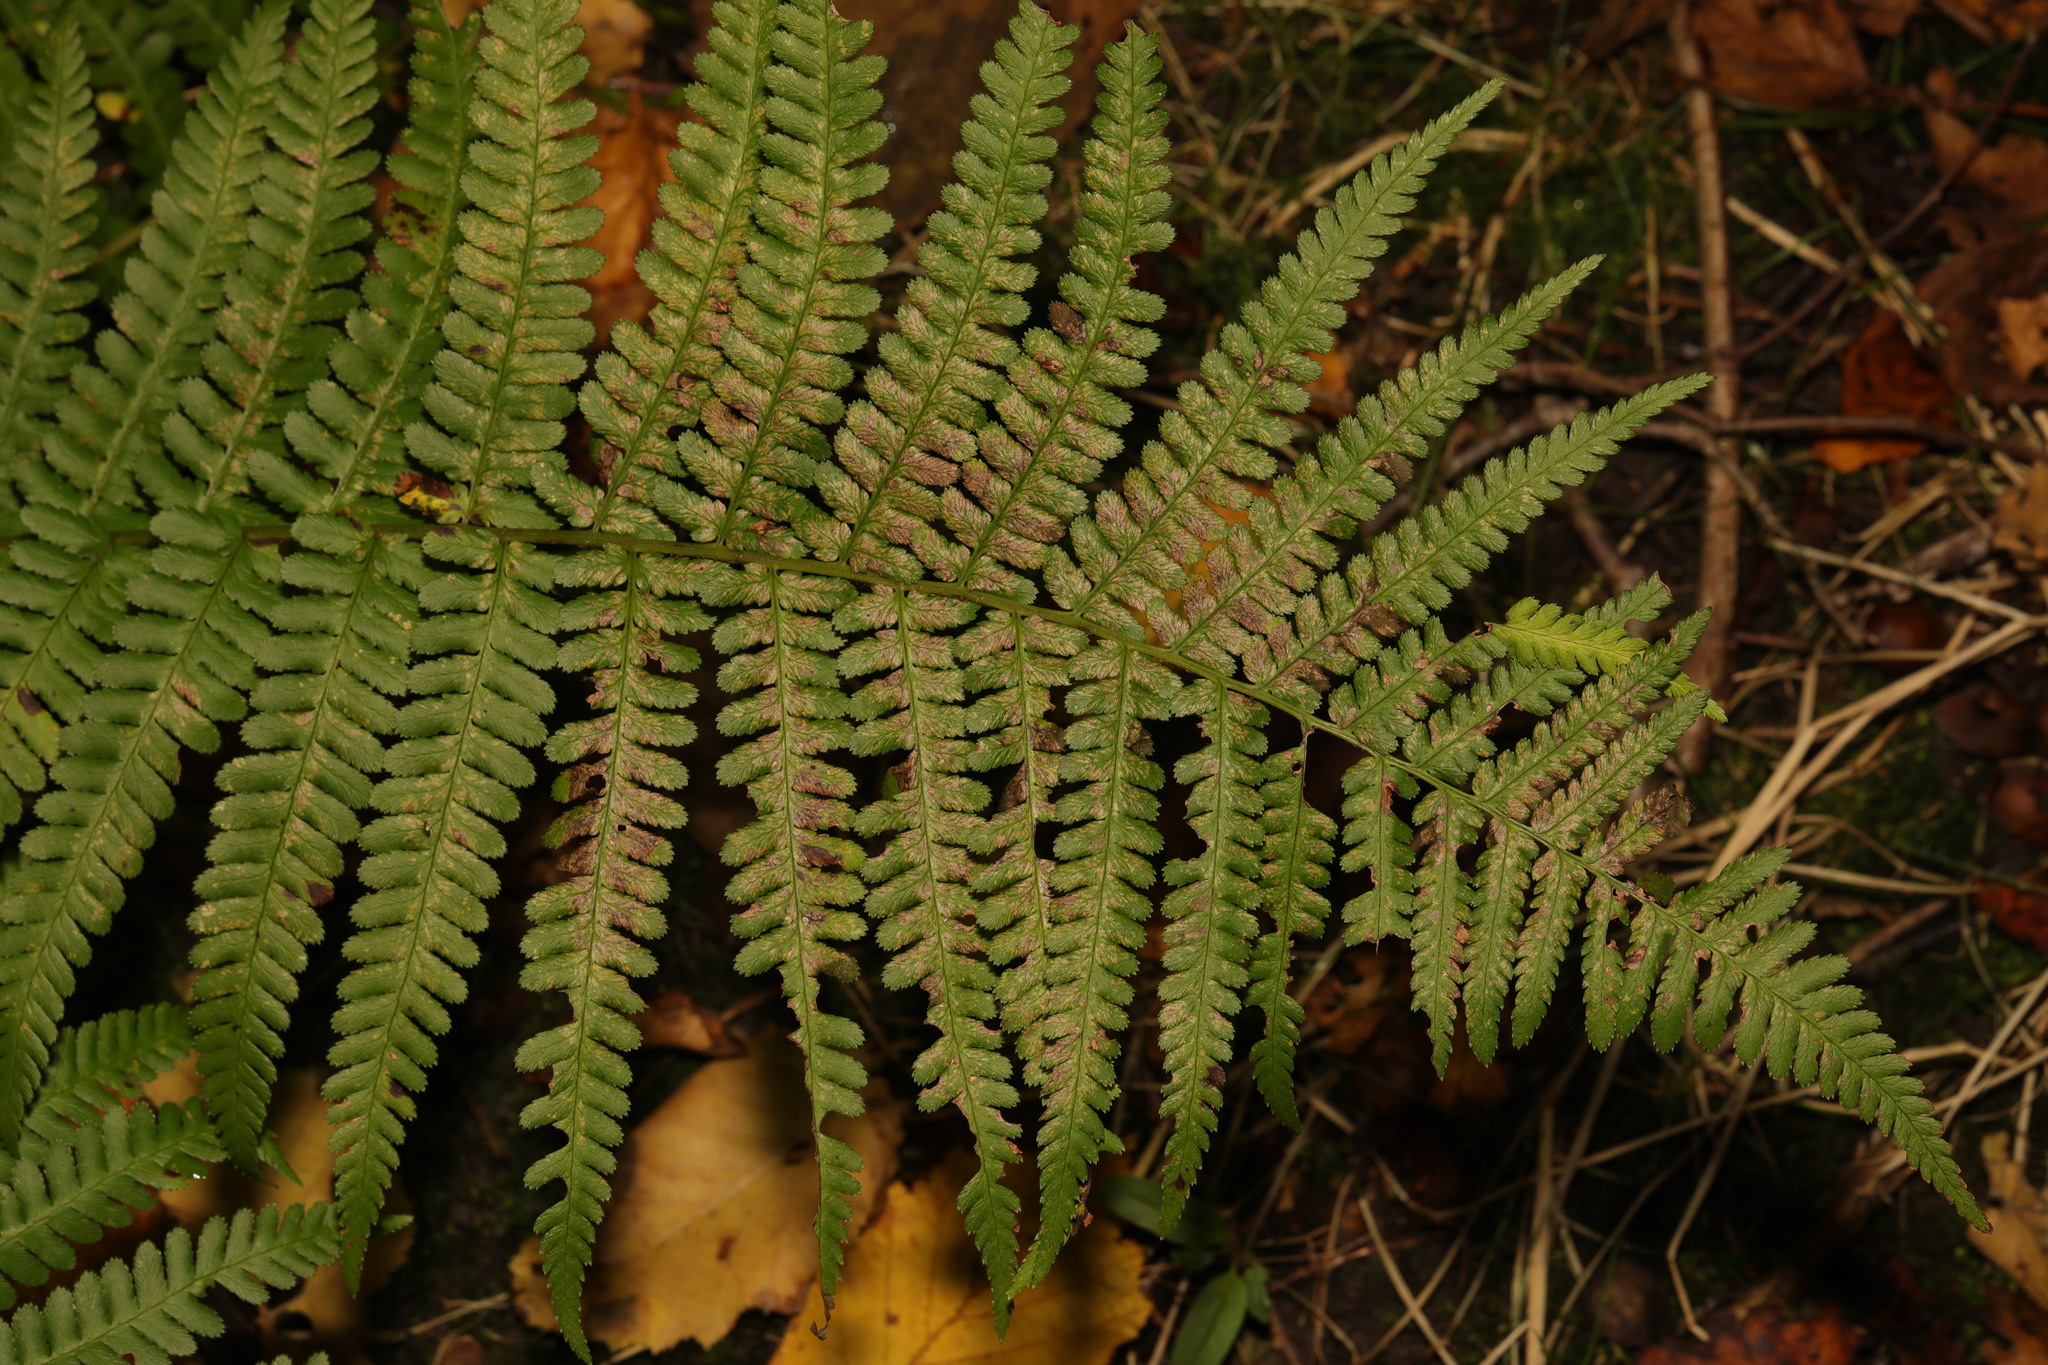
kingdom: Plantae
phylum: Tracheophyta
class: Polypodiopsida
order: Polypodiales
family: Dryopteridaceae
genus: Dryopteris
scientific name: Dryopteris filix-mas
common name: Male fern
